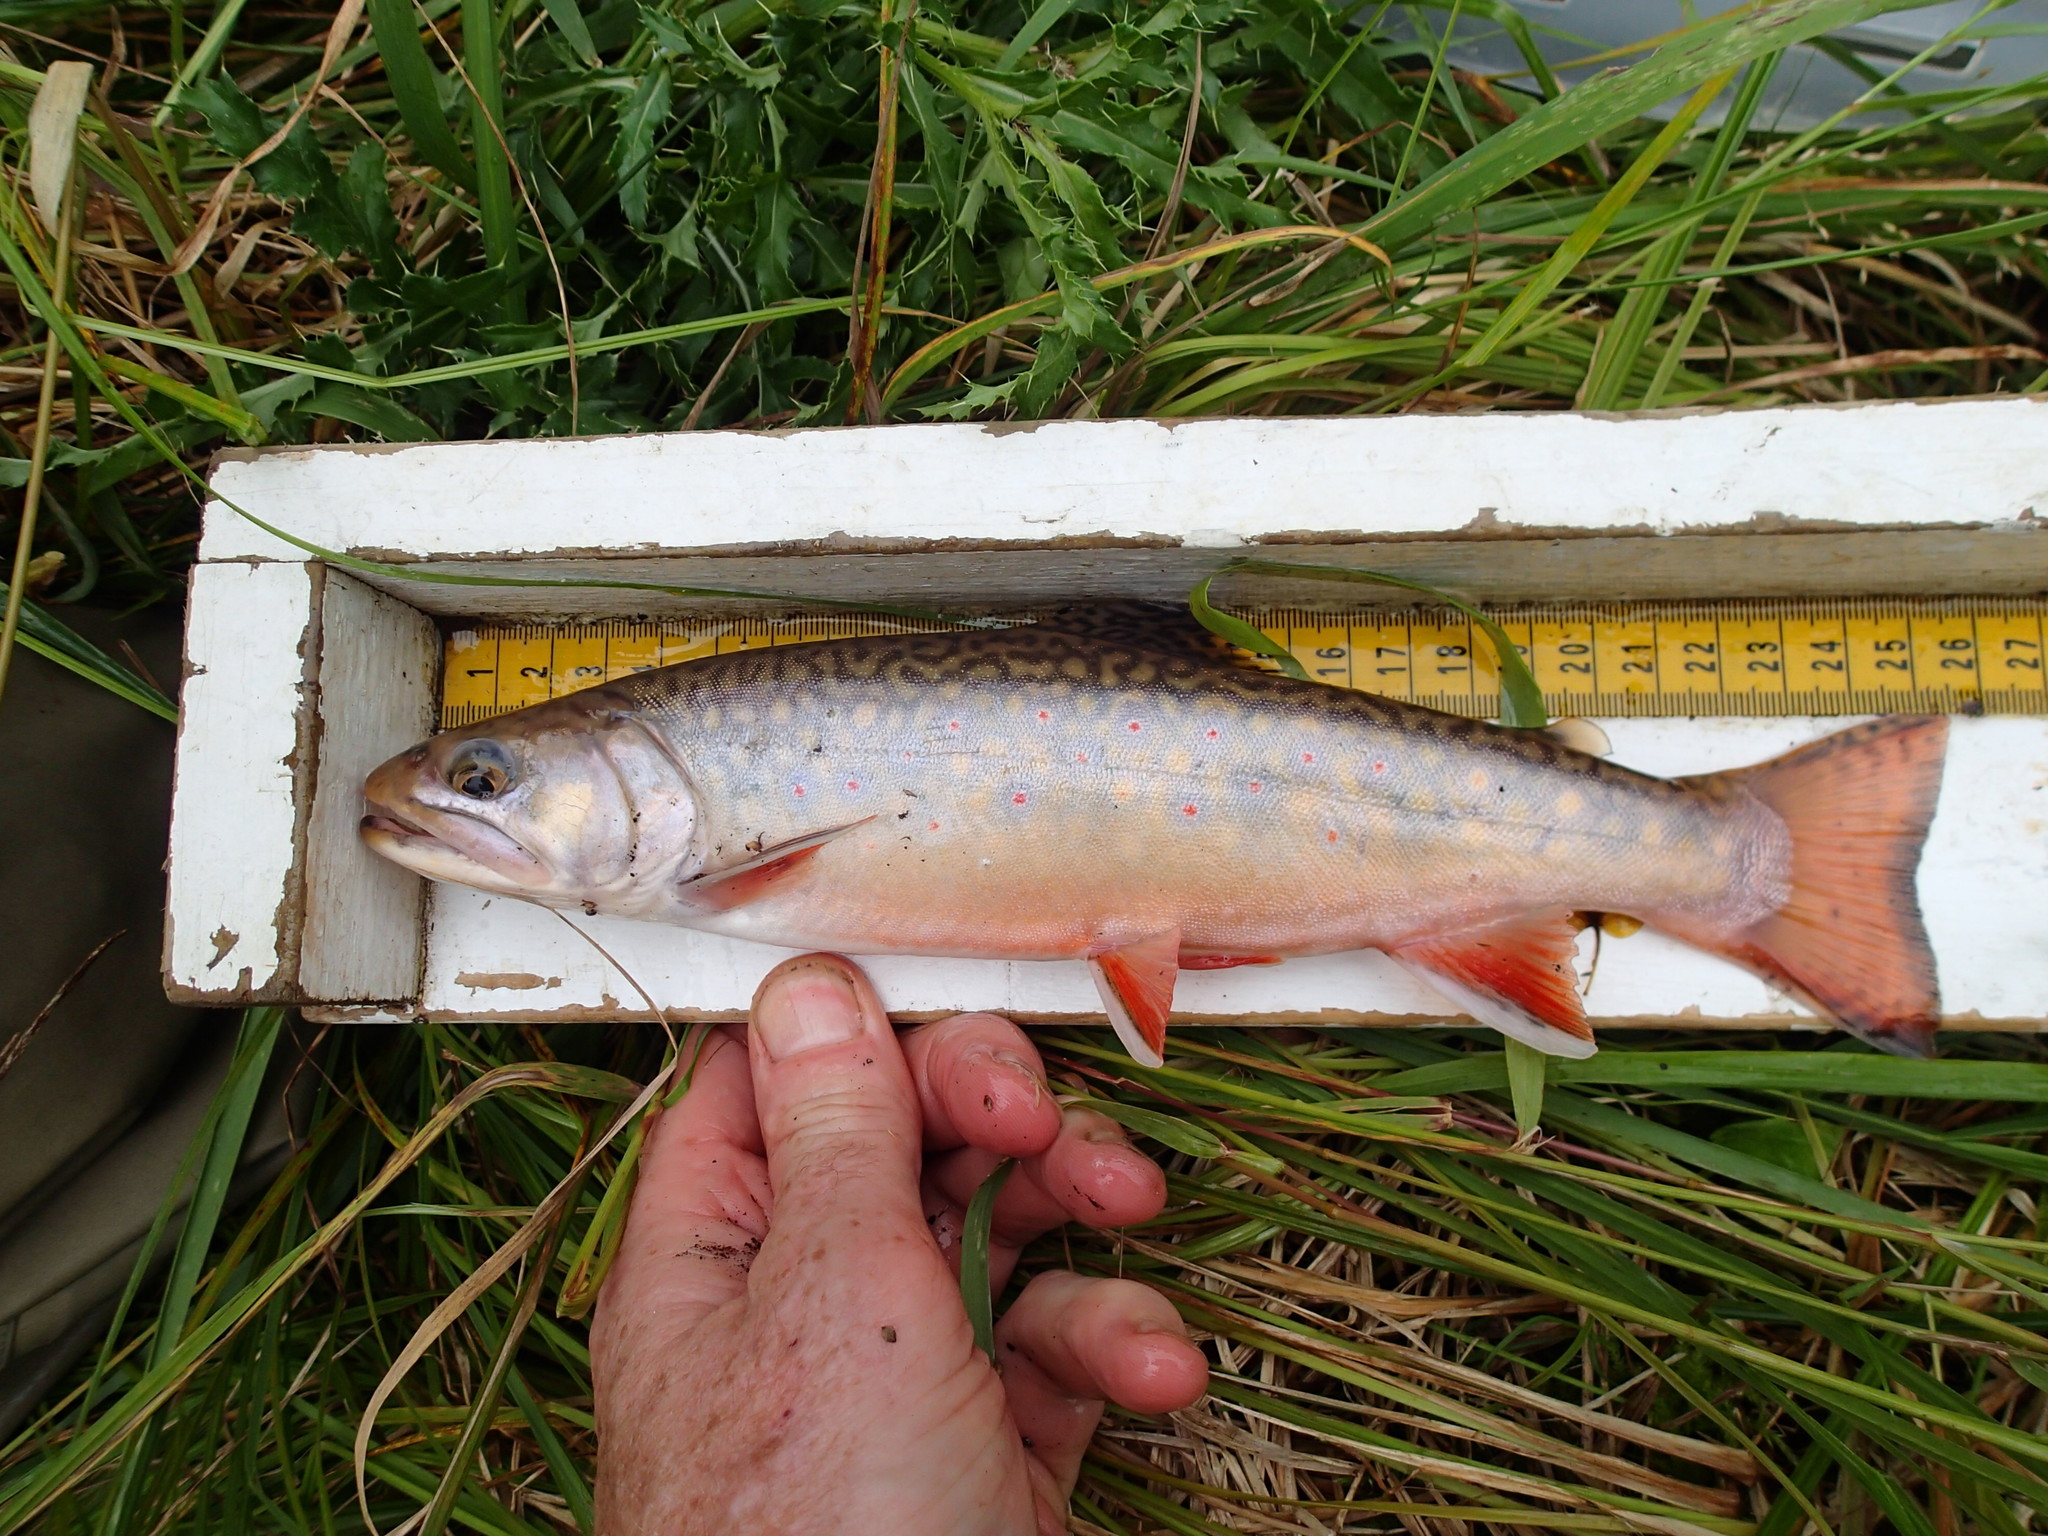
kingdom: Animalia
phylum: Chordata
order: Salmoniformes
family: Salmonidae
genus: Salvelinus
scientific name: Salvelinus fontinalis
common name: Brook trout
